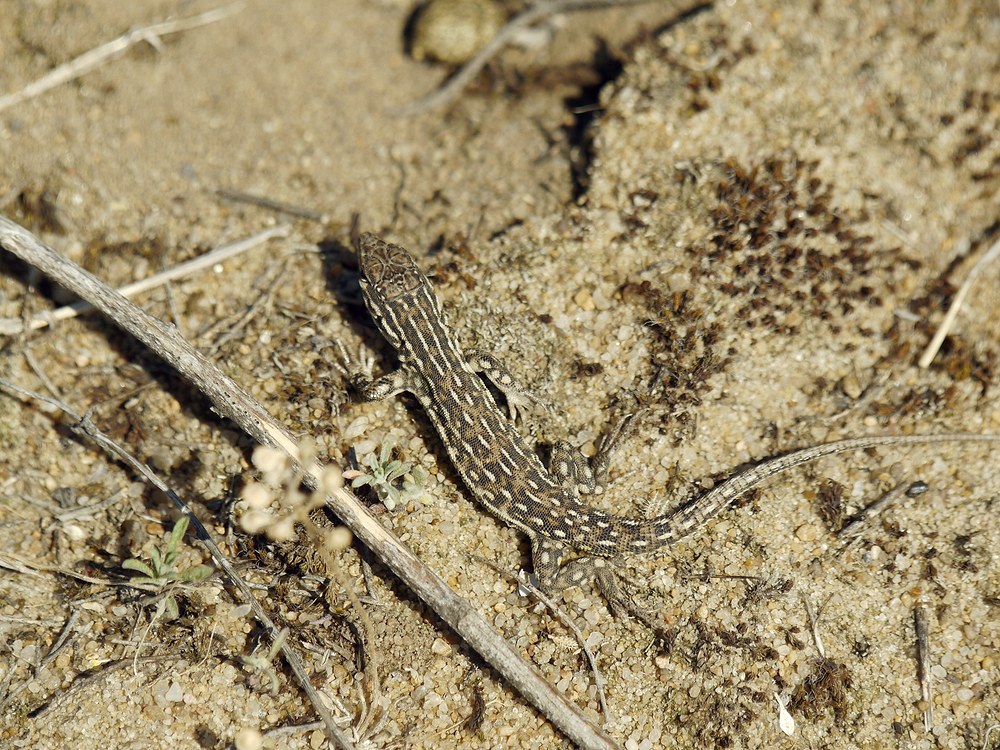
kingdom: Animalia
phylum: Chordata
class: Squamata
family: Lacertidae
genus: Eremias
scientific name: Eremias arguta
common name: Racerunner
